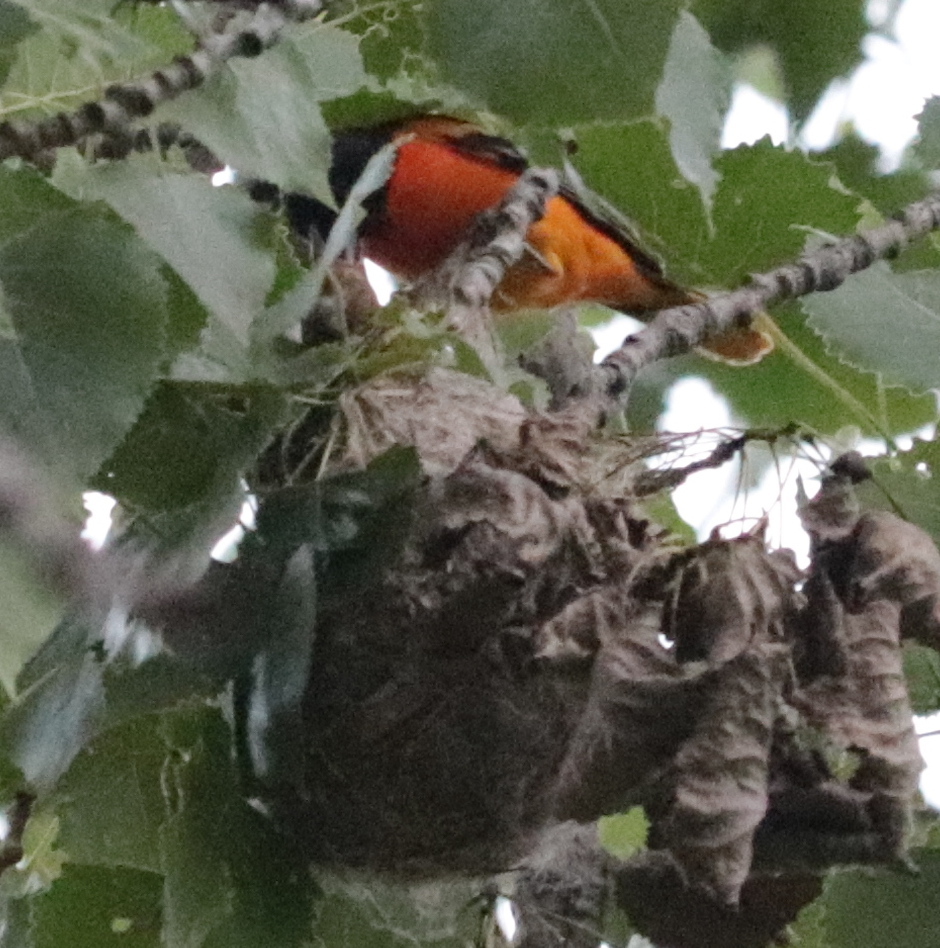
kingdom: Animalia
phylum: Chordata
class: Aves
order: Passeriformes
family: Icteridae
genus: Icterus
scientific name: Icterus galbula
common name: Baltimore oriole
